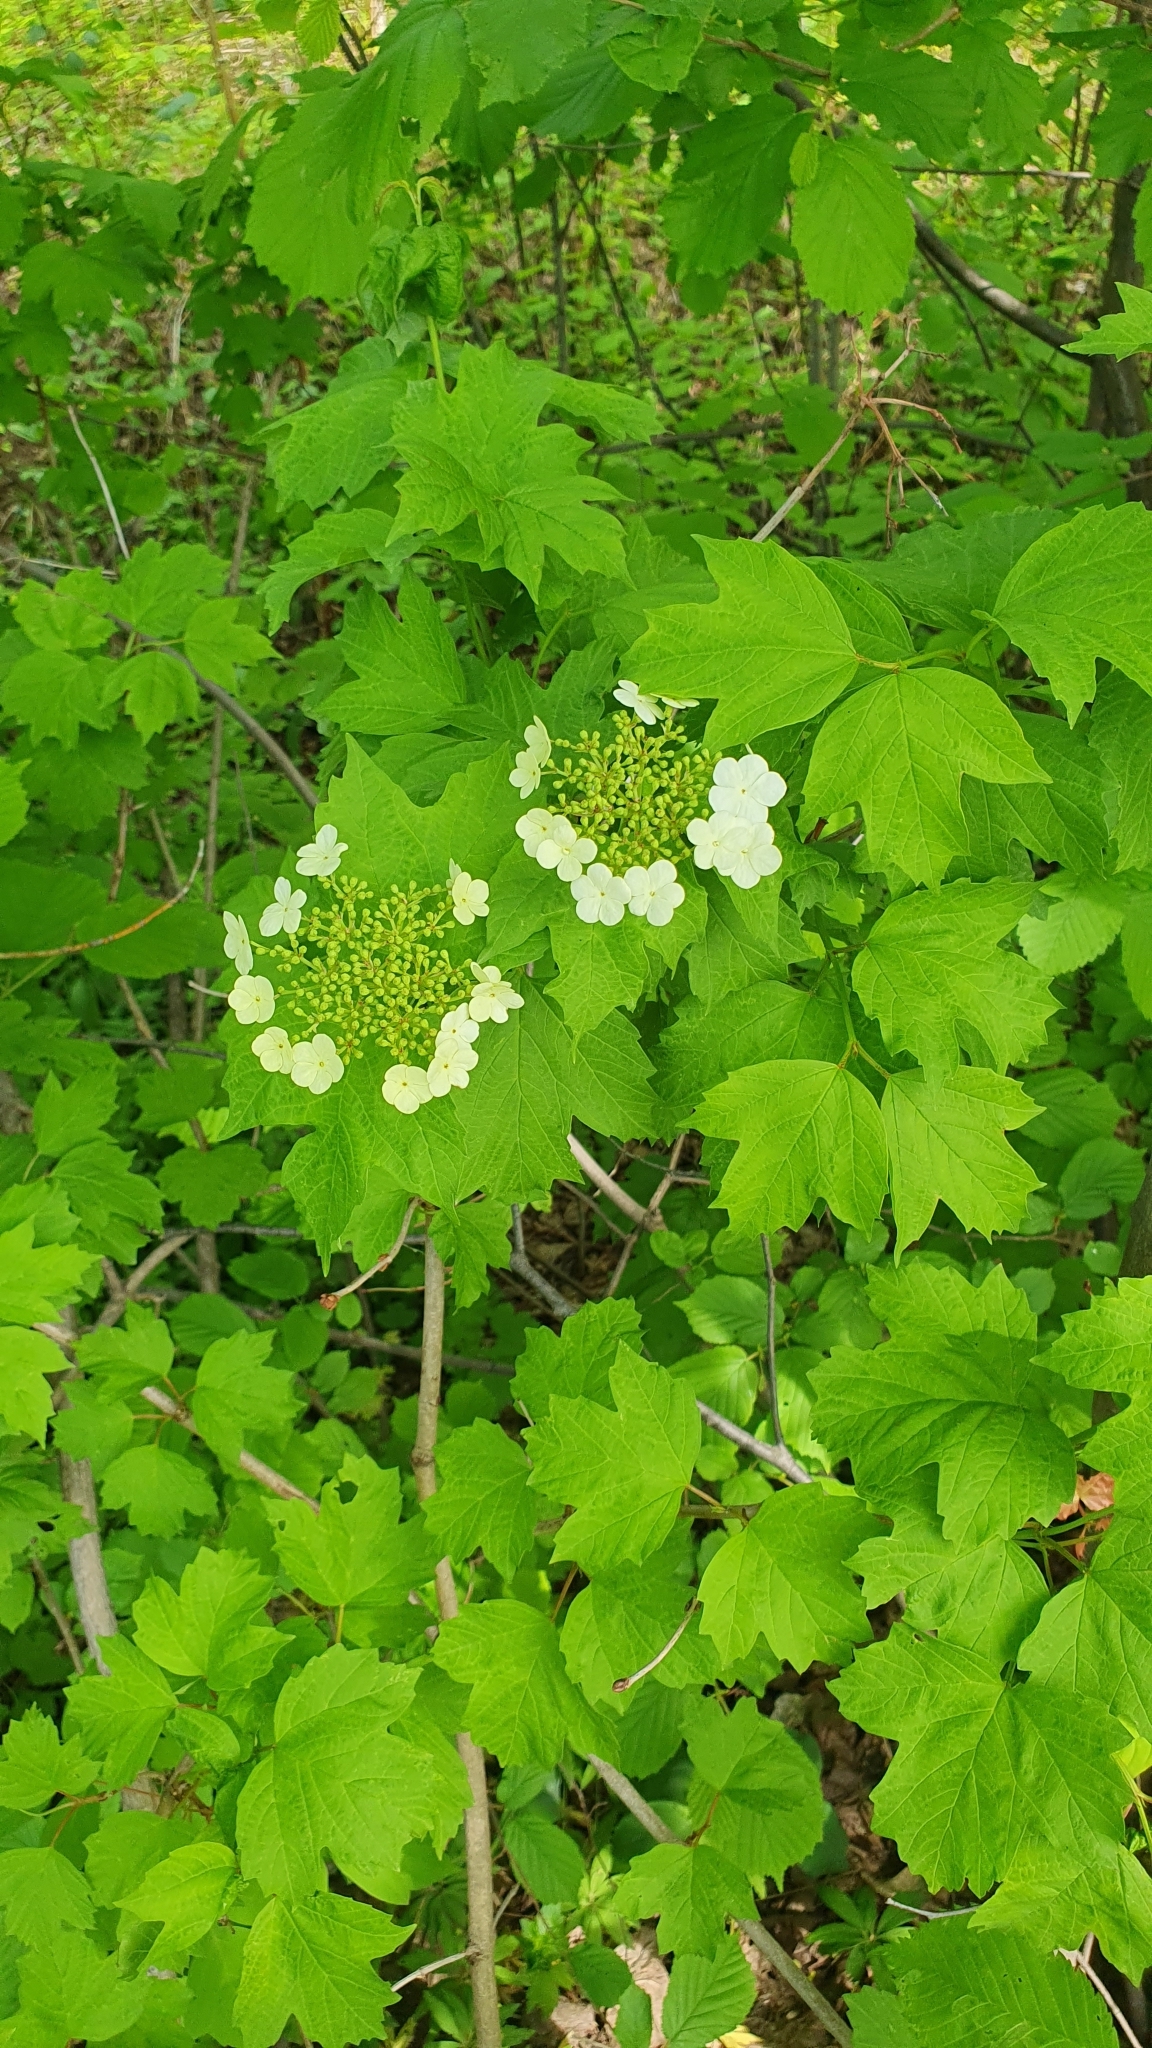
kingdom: Plantae
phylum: Tracheophyta
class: Magnoliopsida
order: Dipsacales
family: Viburnaceae
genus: Viburnum
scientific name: Viburnum opulus
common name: Guelder-rose
